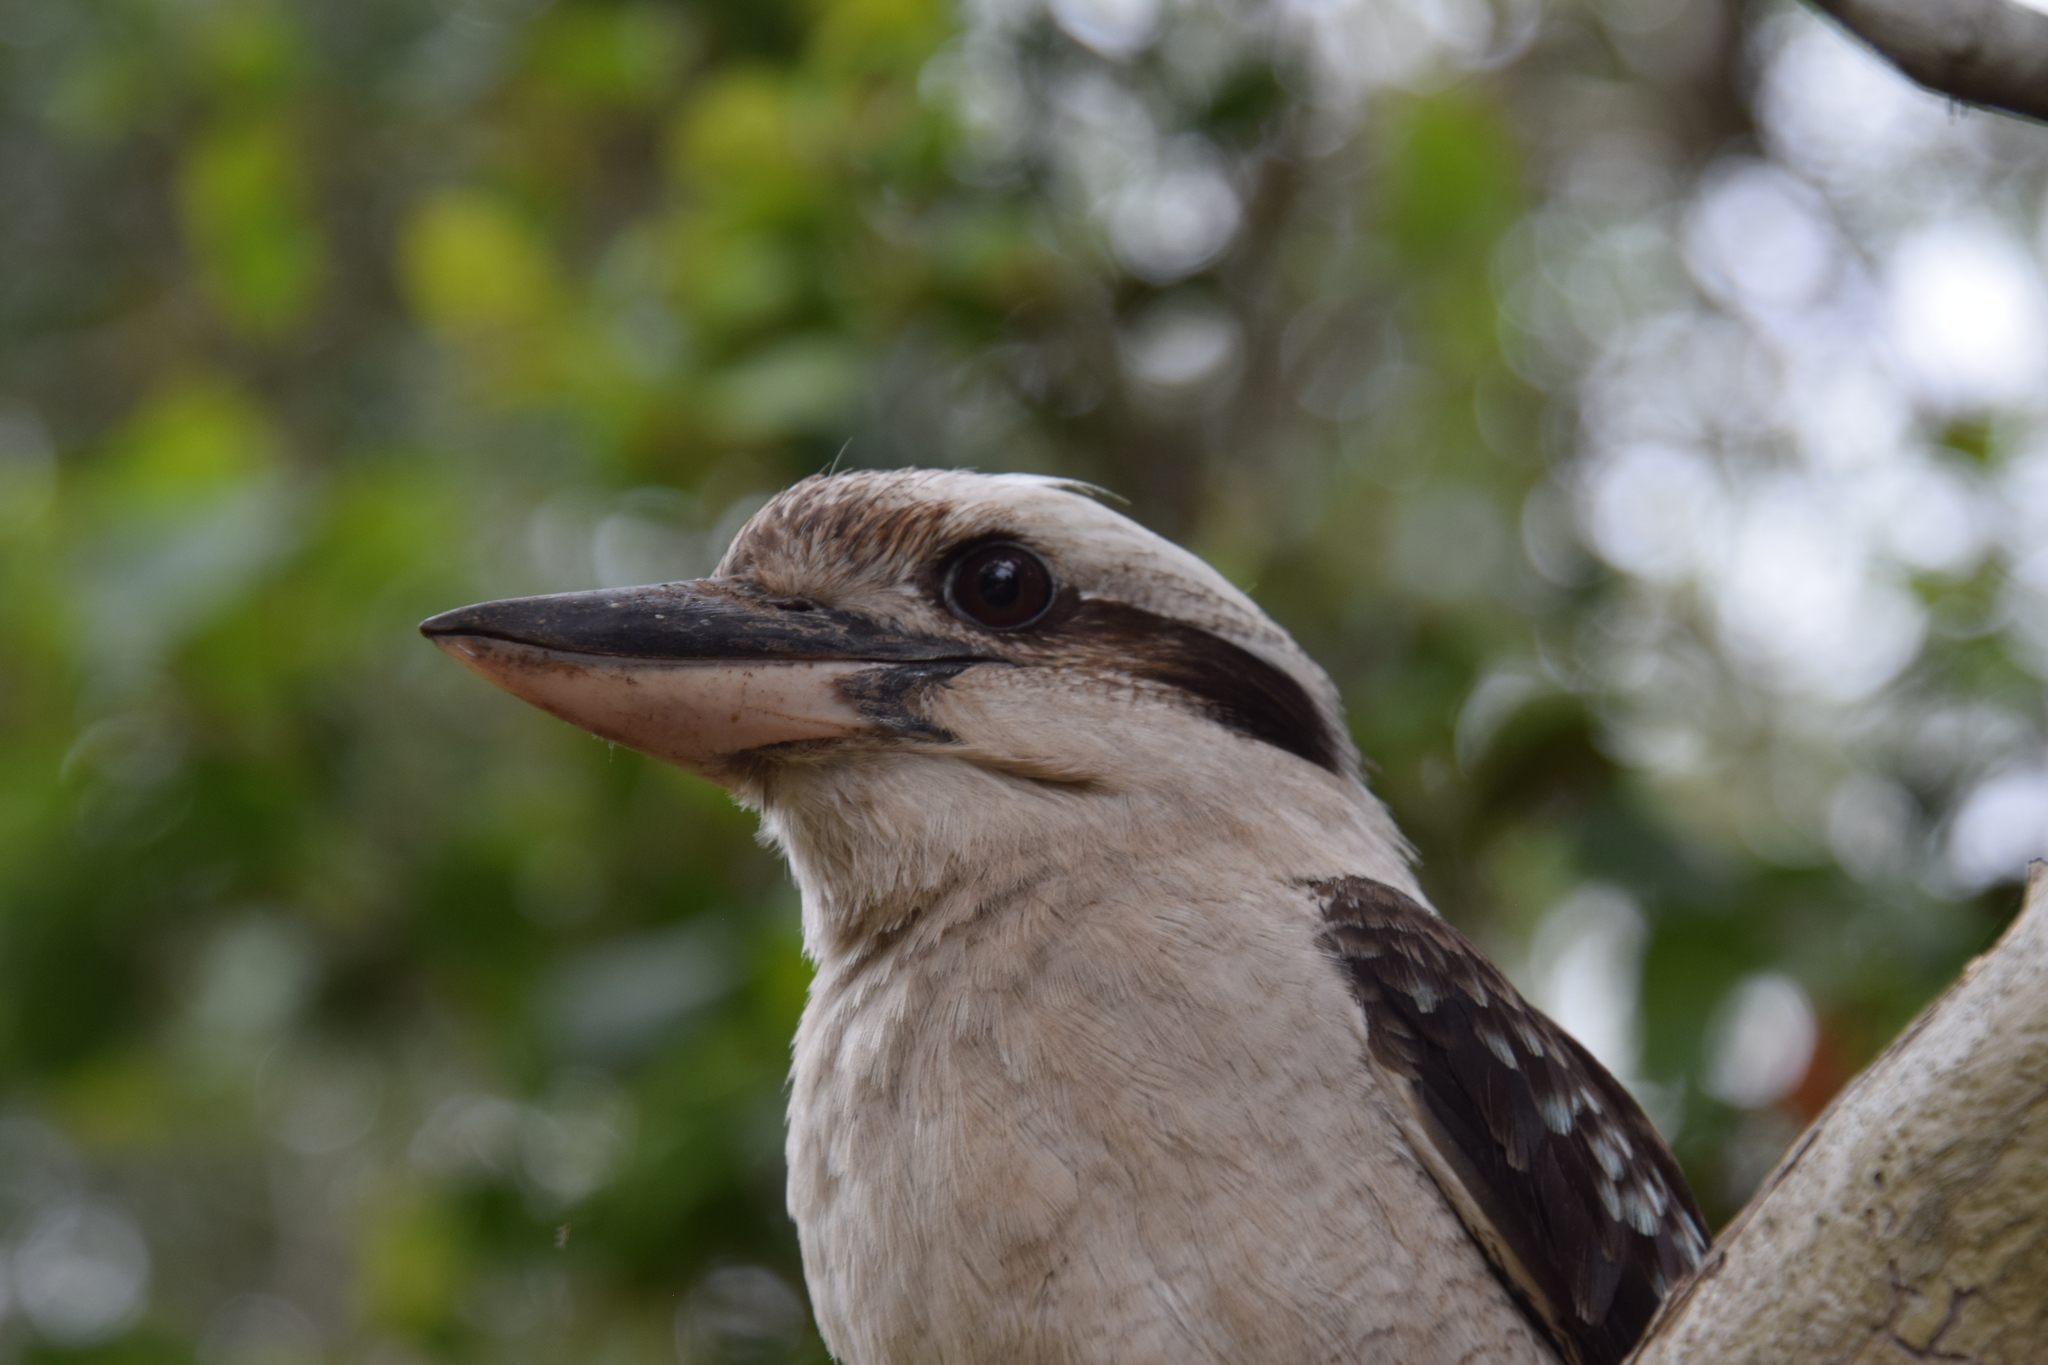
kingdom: Animalia
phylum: Chordata
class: Aves
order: Coraciiformes
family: Alcedinidae
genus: Dacelo
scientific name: Dacelo novaeguineae
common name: Laughing kookaburra
